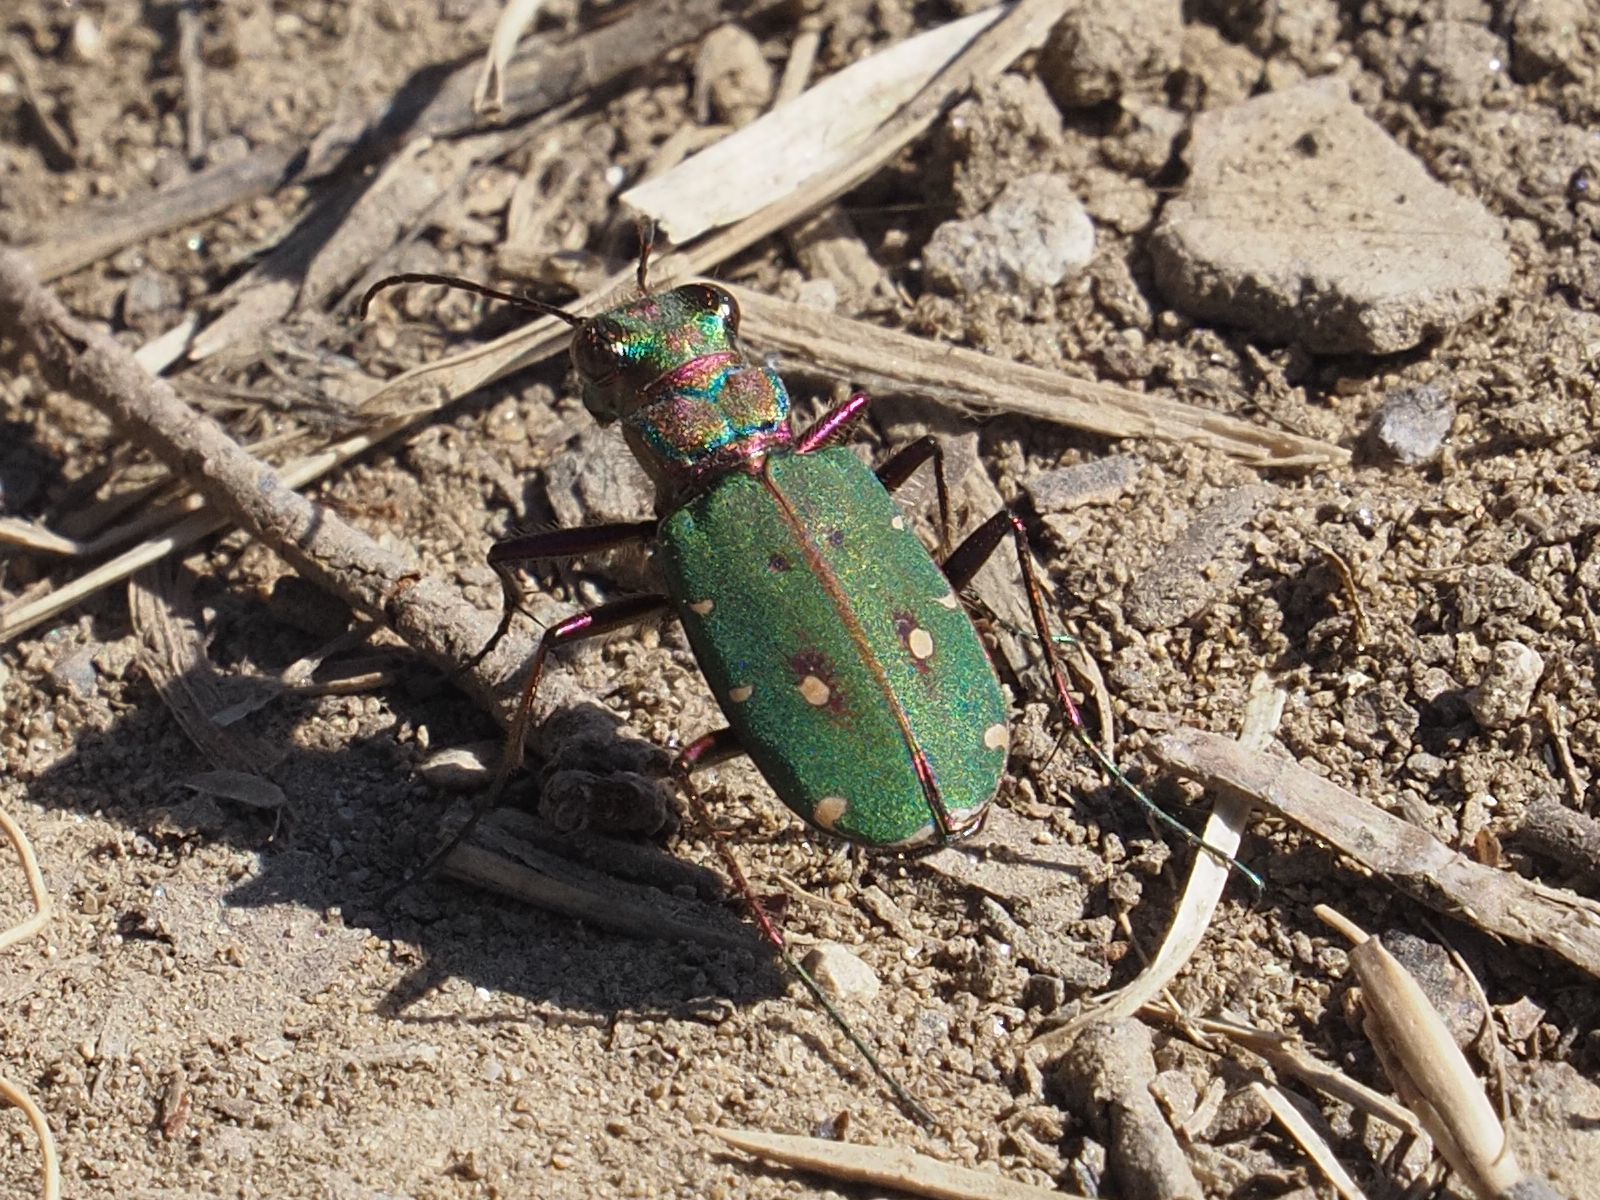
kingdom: Animalia
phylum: Arthropoda
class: Insecta
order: Coleoptera
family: Carabidae
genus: Cicindela
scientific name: Cicindela campestris
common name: Common tiger beetle
